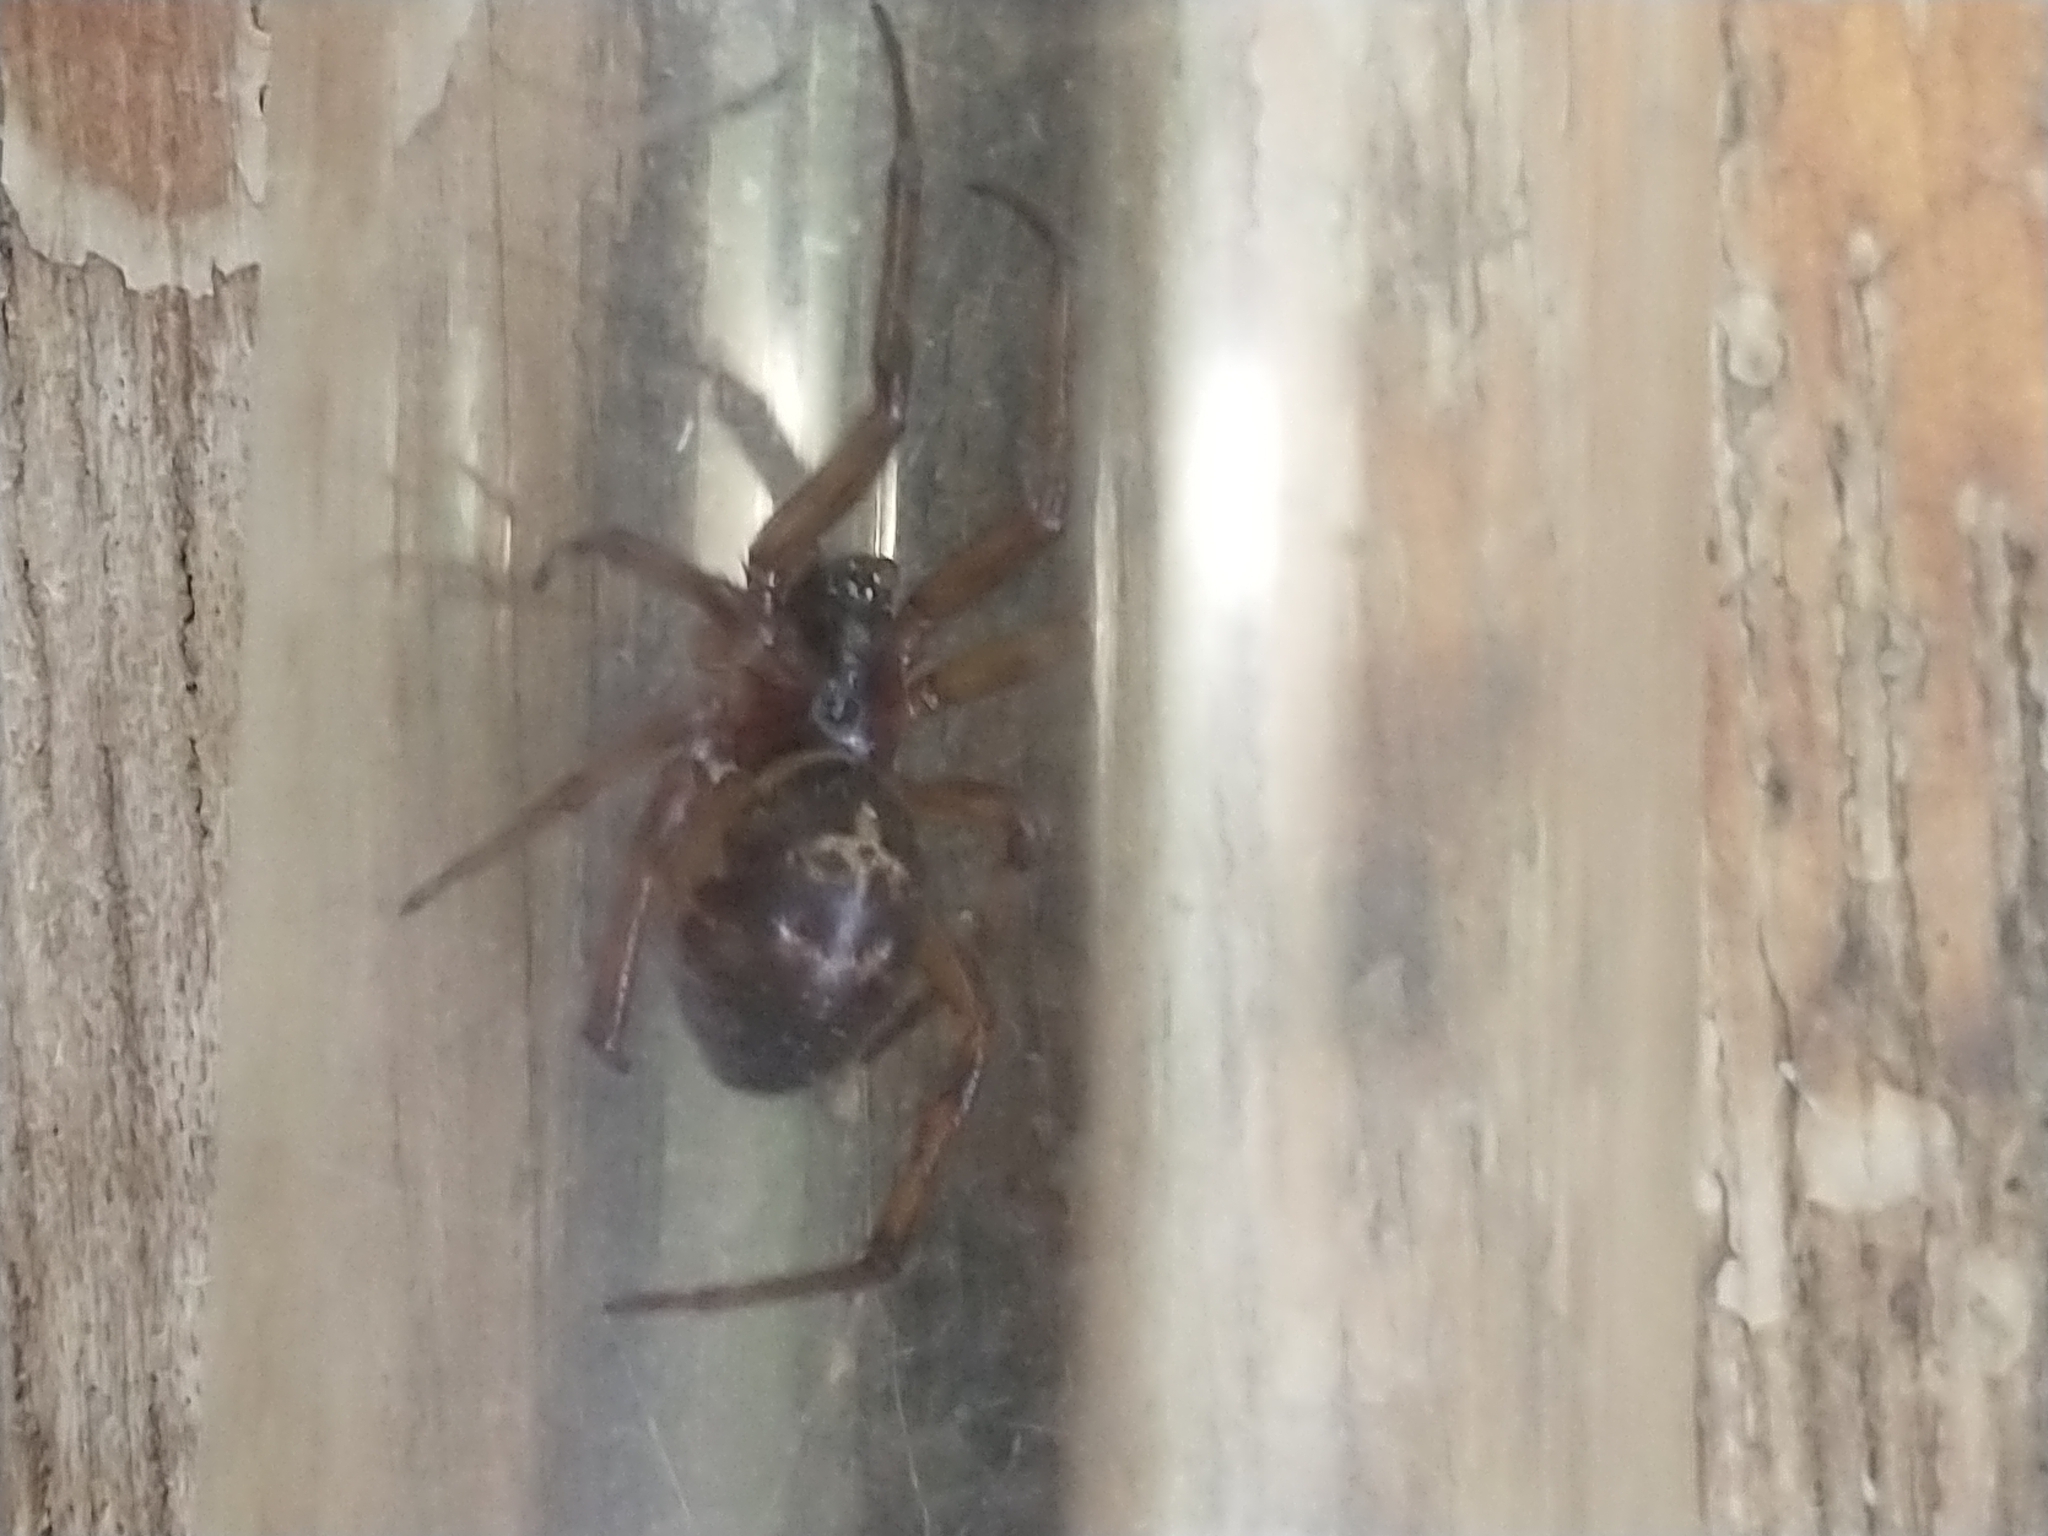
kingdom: Animalia
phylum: Arthropoda
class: Arachnida
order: Araneae
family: Theridiidae
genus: Steatoda
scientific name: Steatoda nobilis
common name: Cobweb weaver
